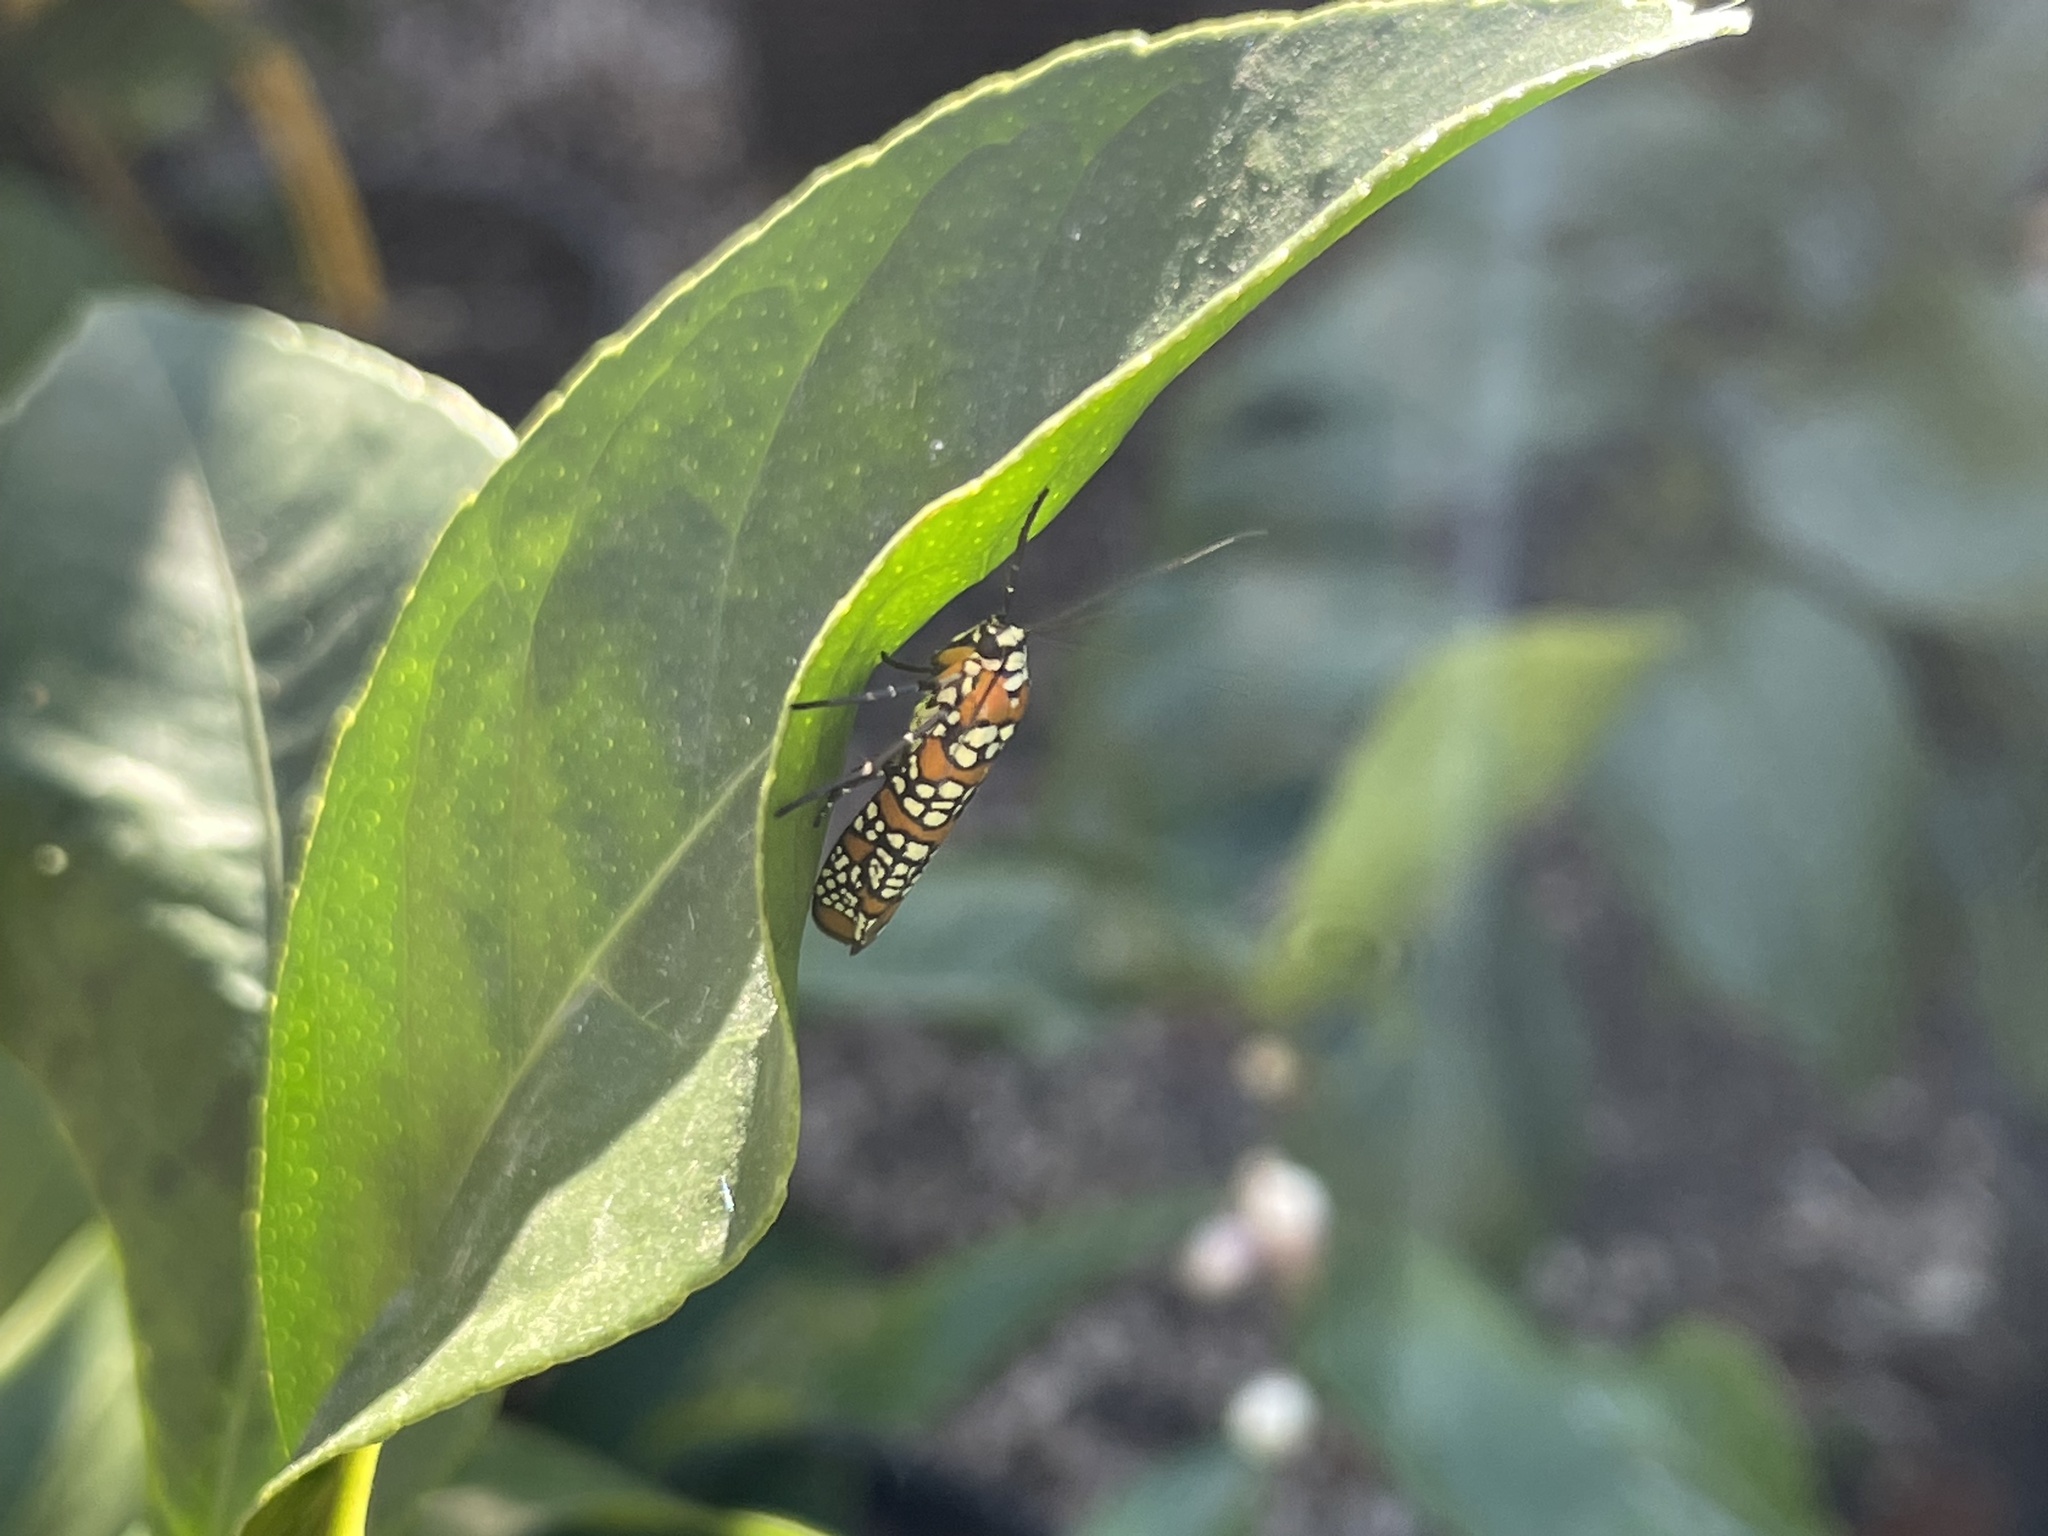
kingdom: Animalia
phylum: Arthropoda
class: Insecta
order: Lepidoptera
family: Attevidae
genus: Atteva
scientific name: Atteva punctella
